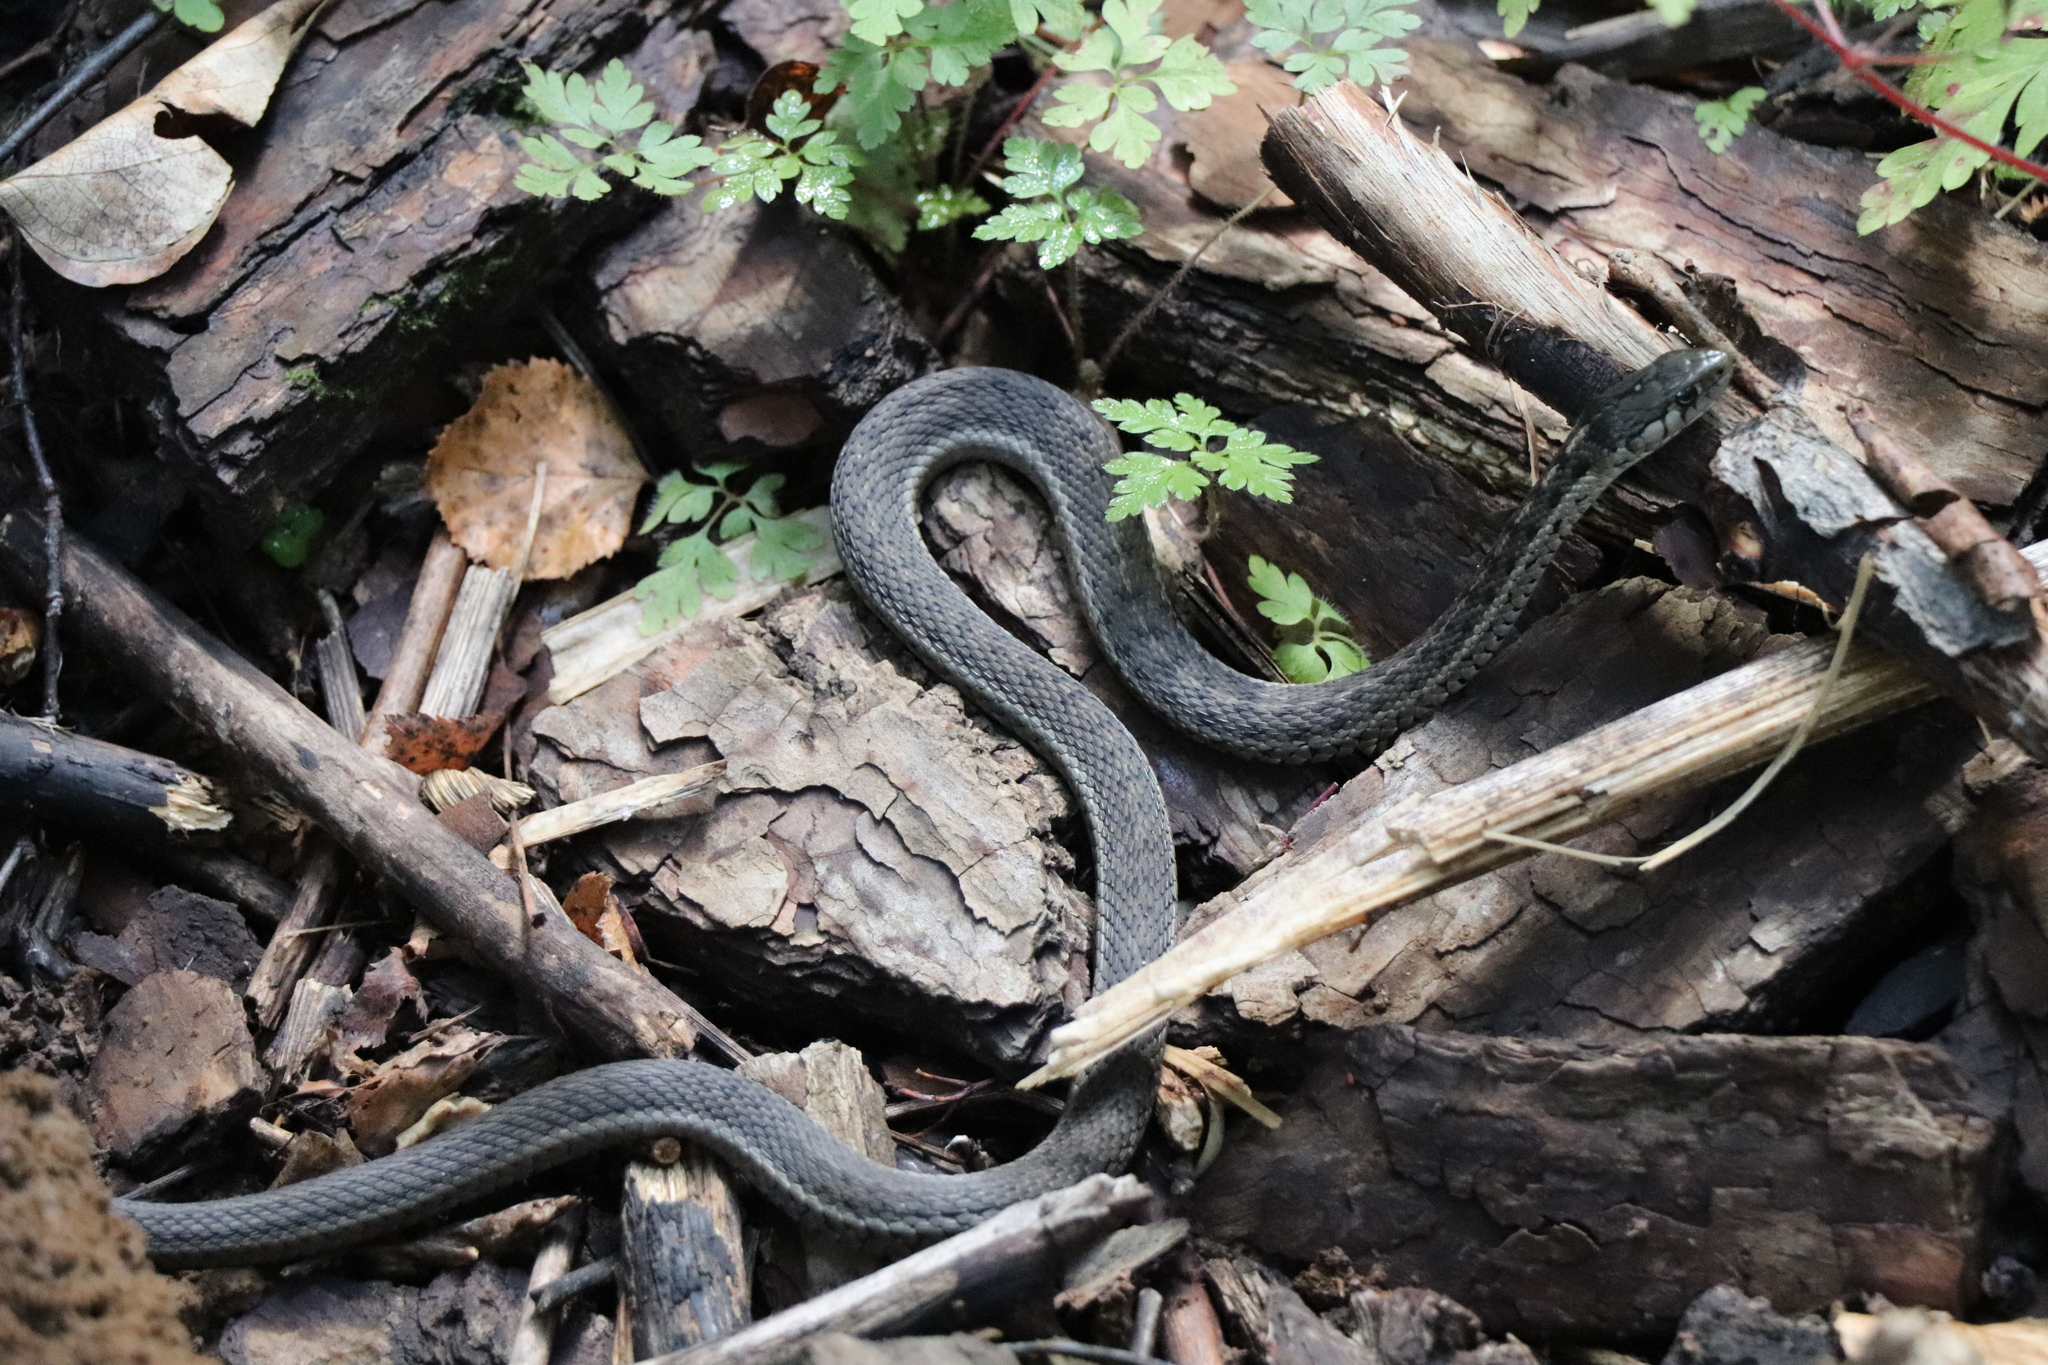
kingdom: Animalia
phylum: Chordata
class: Squamata
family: Colubridae
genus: Thamnophis
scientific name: Thamnophis elegans
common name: Western terrestrial garter snake
